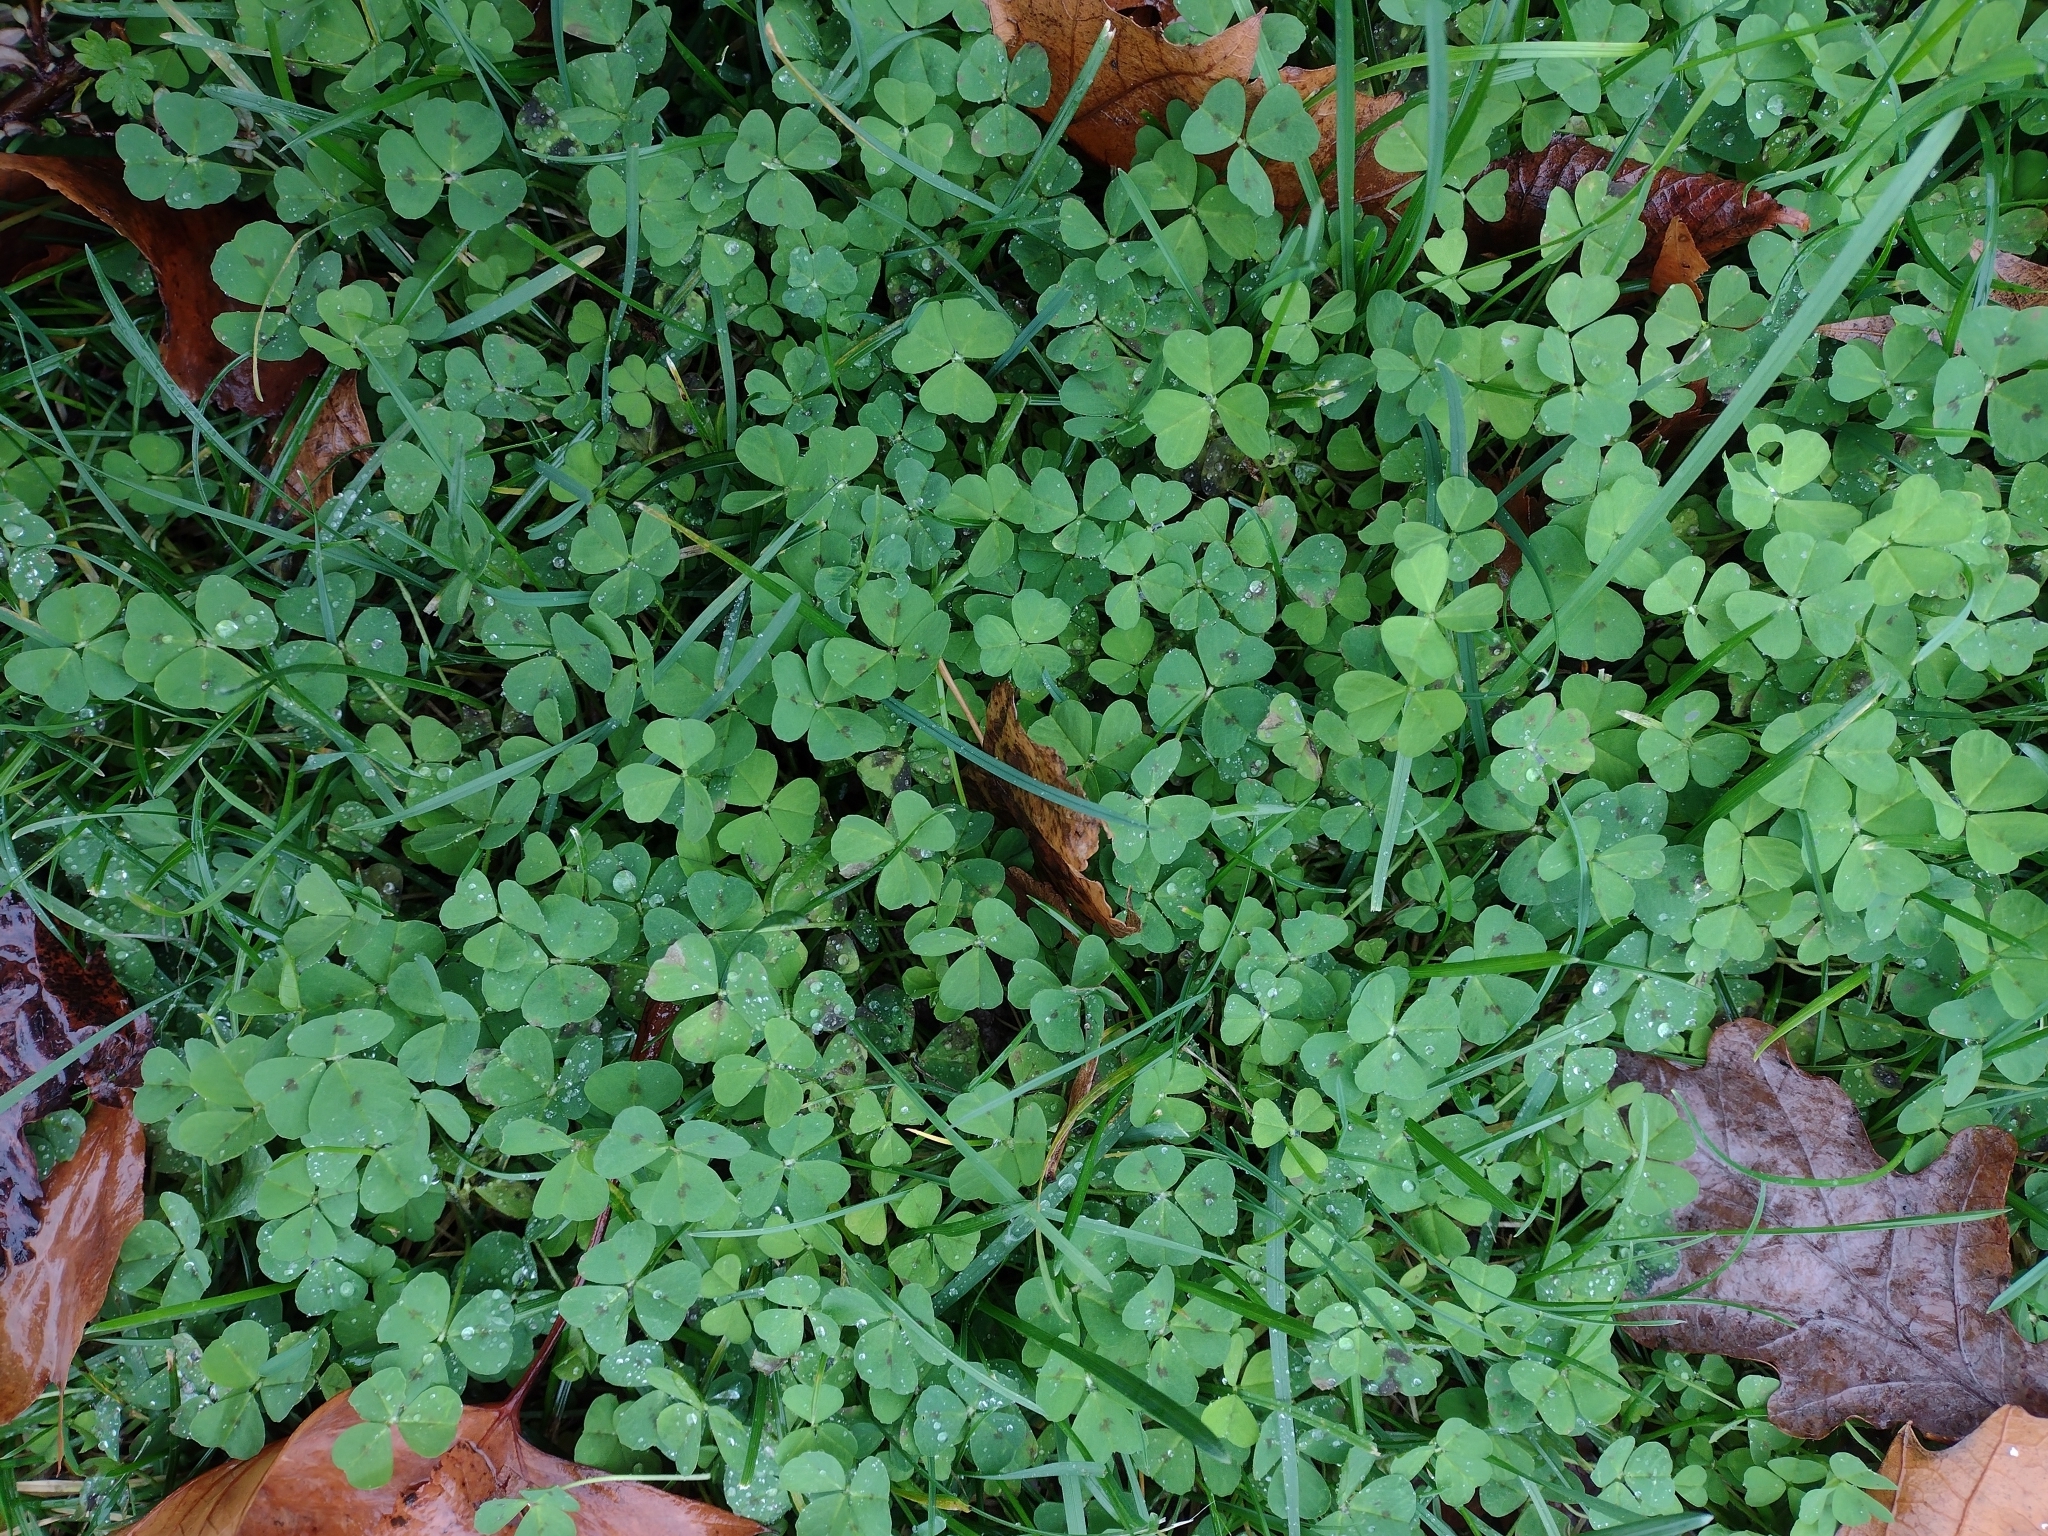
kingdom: Plantae
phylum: Tracheophyta
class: Magnoliopsida
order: Fabales
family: Fabaceae
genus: Medicago
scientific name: Medicago arabica
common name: Spotted medick
